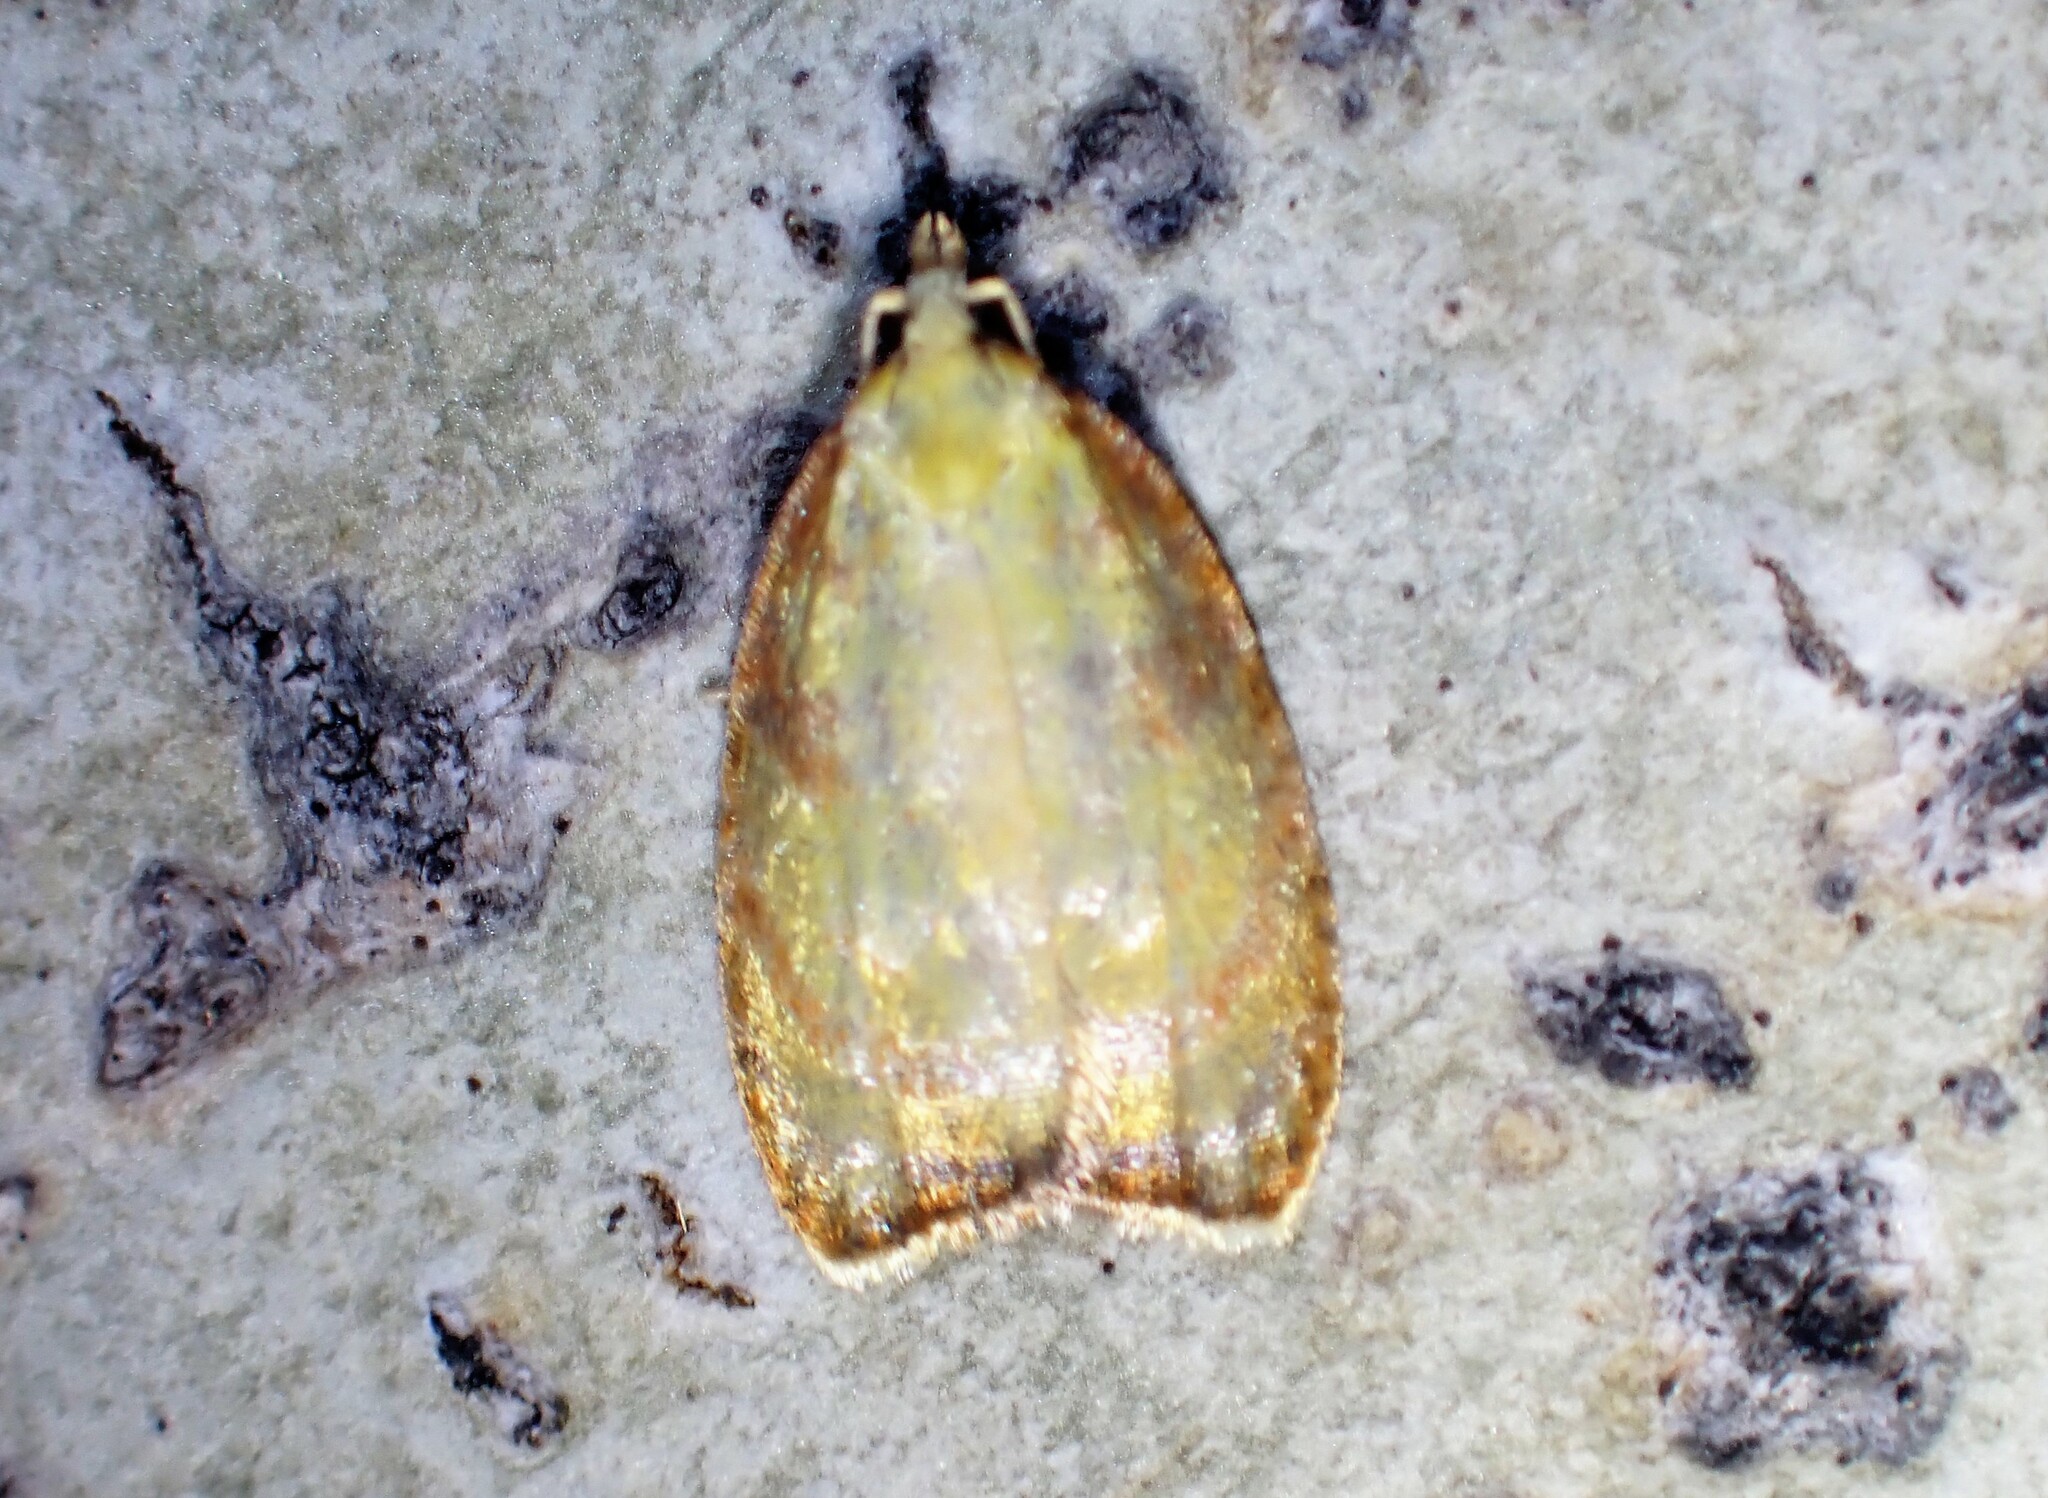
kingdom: Animalia
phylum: Arthropoda
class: Insecta
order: Lepidoptera
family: Tortricidae
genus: Acleris
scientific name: Acleris curvalana
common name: Blueberry leaftier moth
